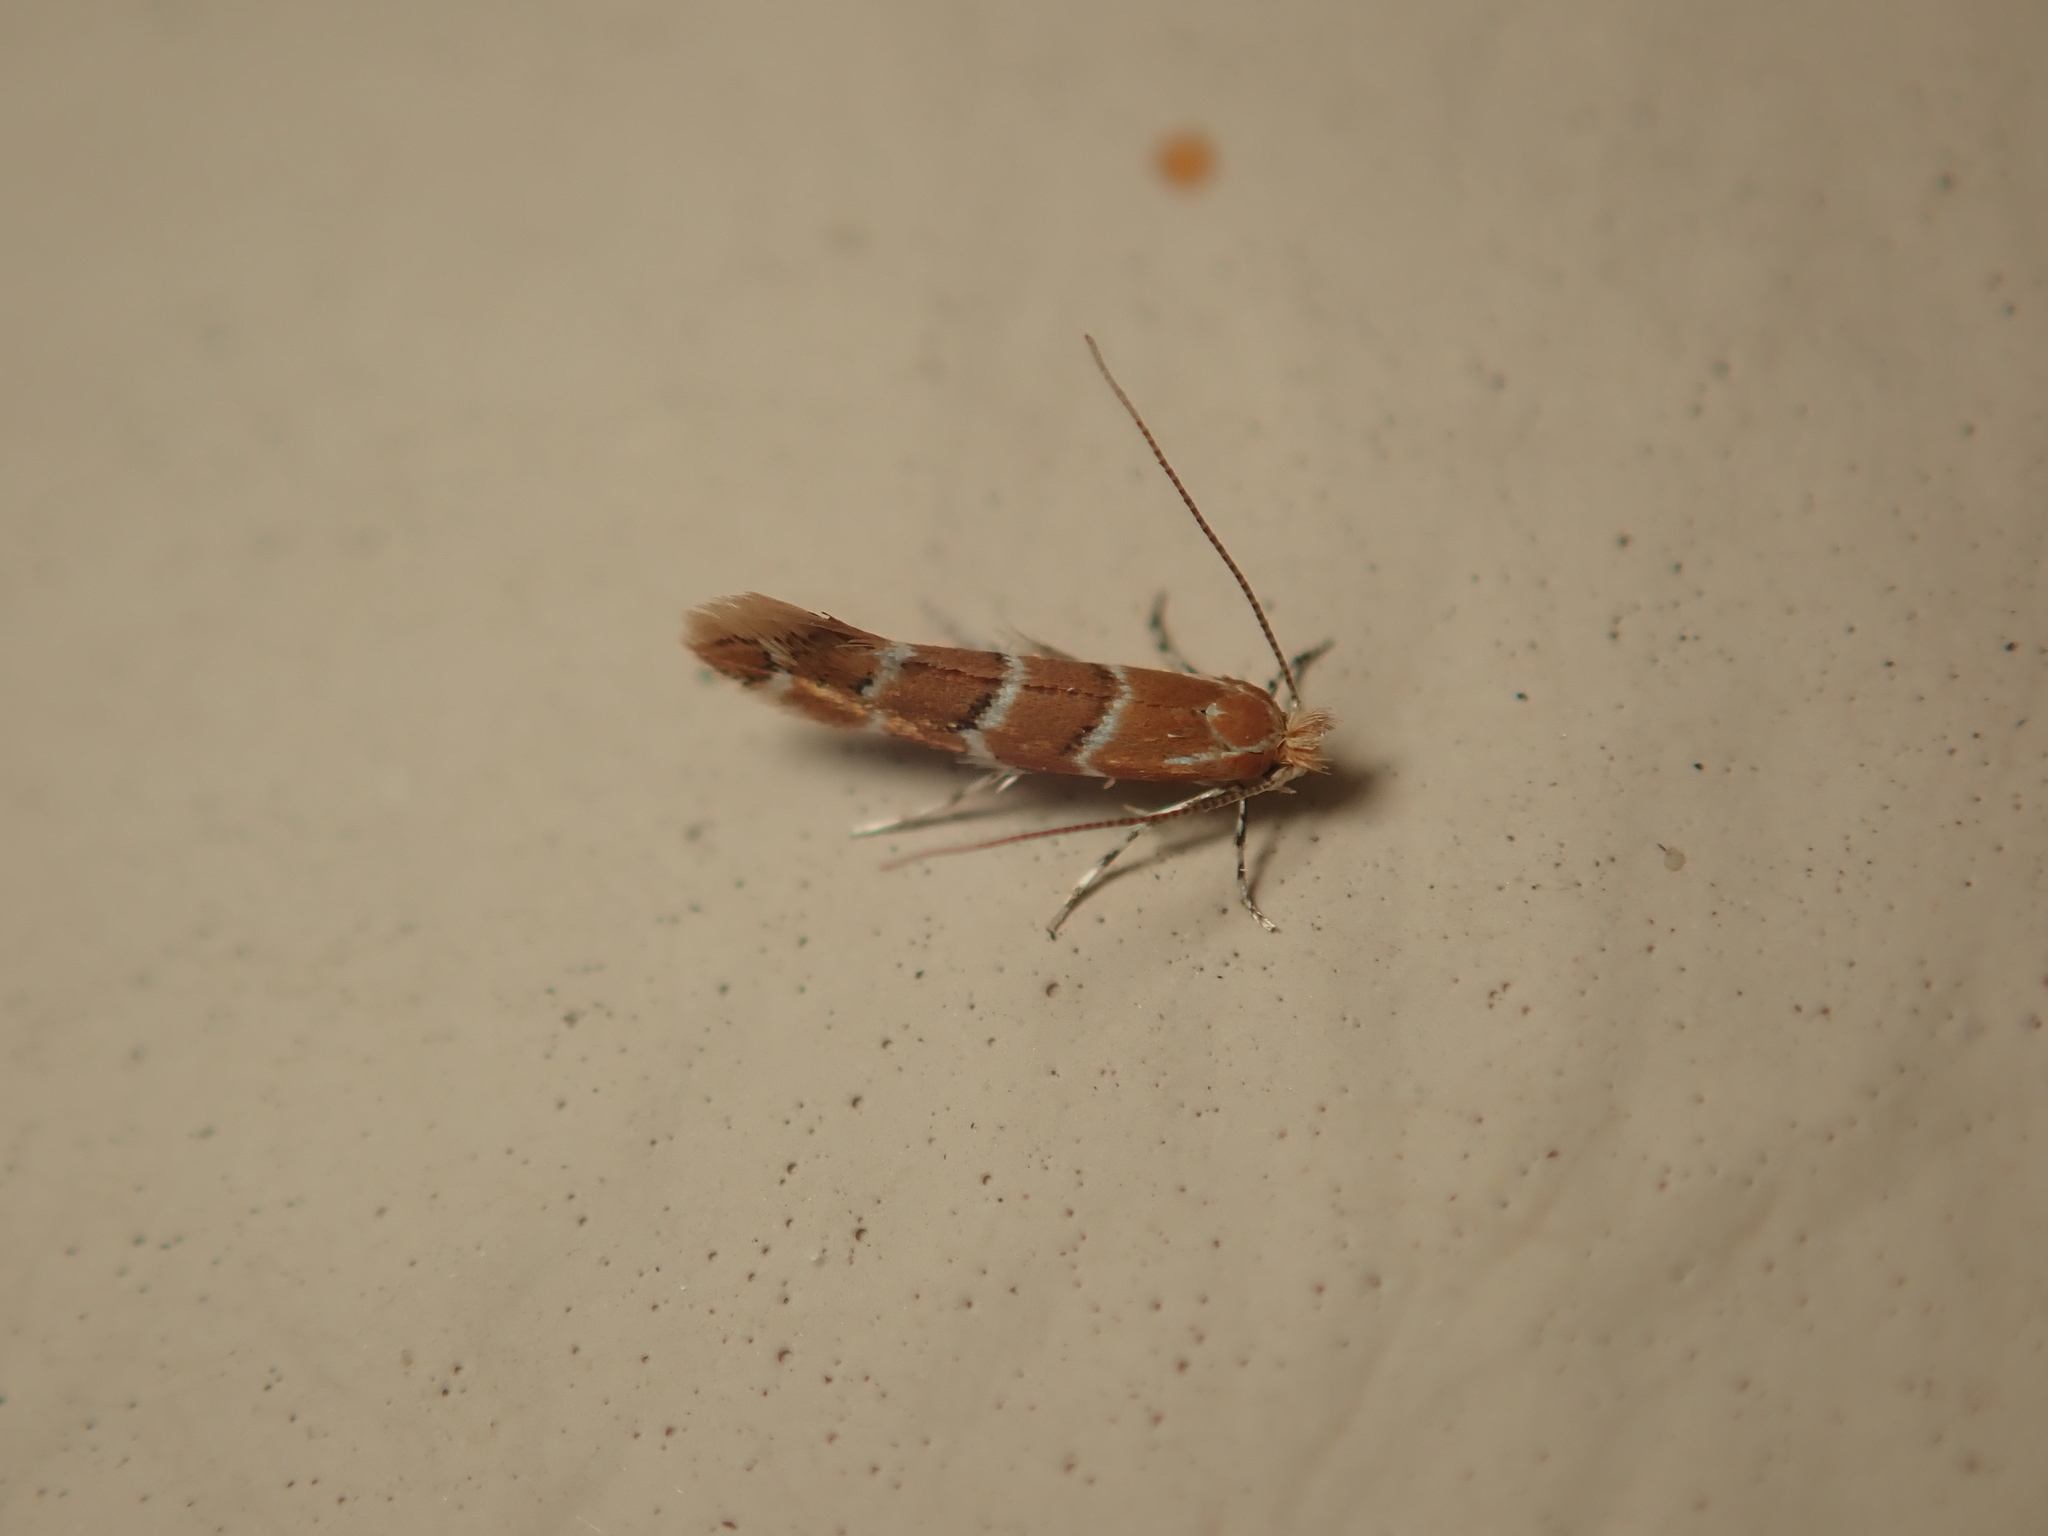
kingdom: Animalia
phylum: Arthropoda
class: Insecta
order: Lepidoptera
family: Gracillariidae
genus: Cameraria
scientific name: Cameraria ohridella
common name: Horse-chestnut leaf-miner
